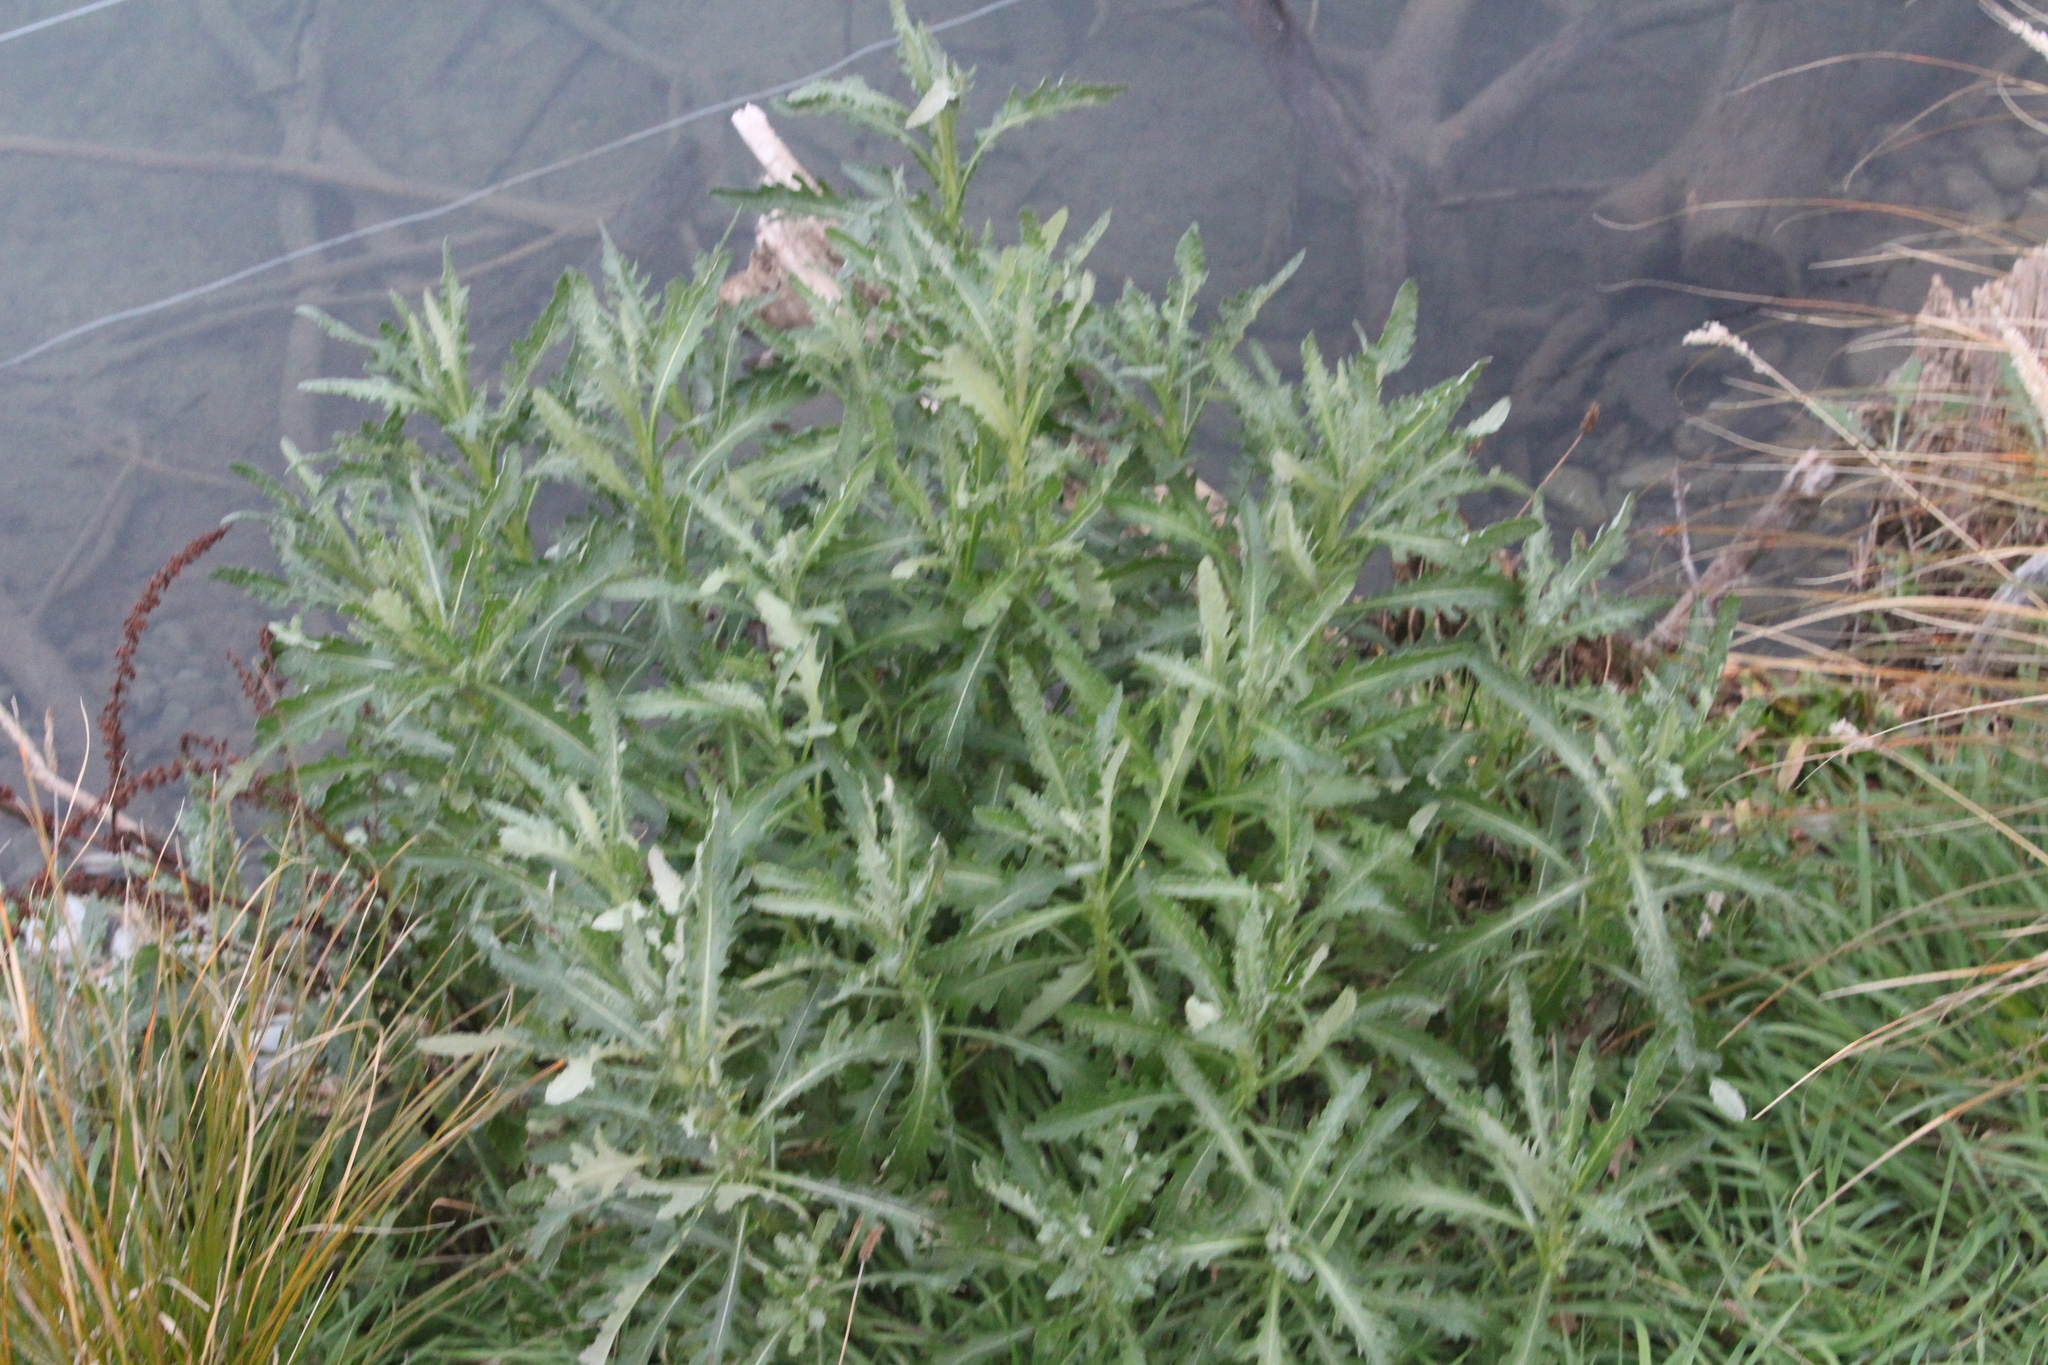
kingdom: Plantae
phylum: Tracheophyta
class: Magnoliopsida
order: Asterales
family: Asteraceae
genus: Senecio
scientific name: Senecio glomeratus
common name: Cutleaf burnweed
